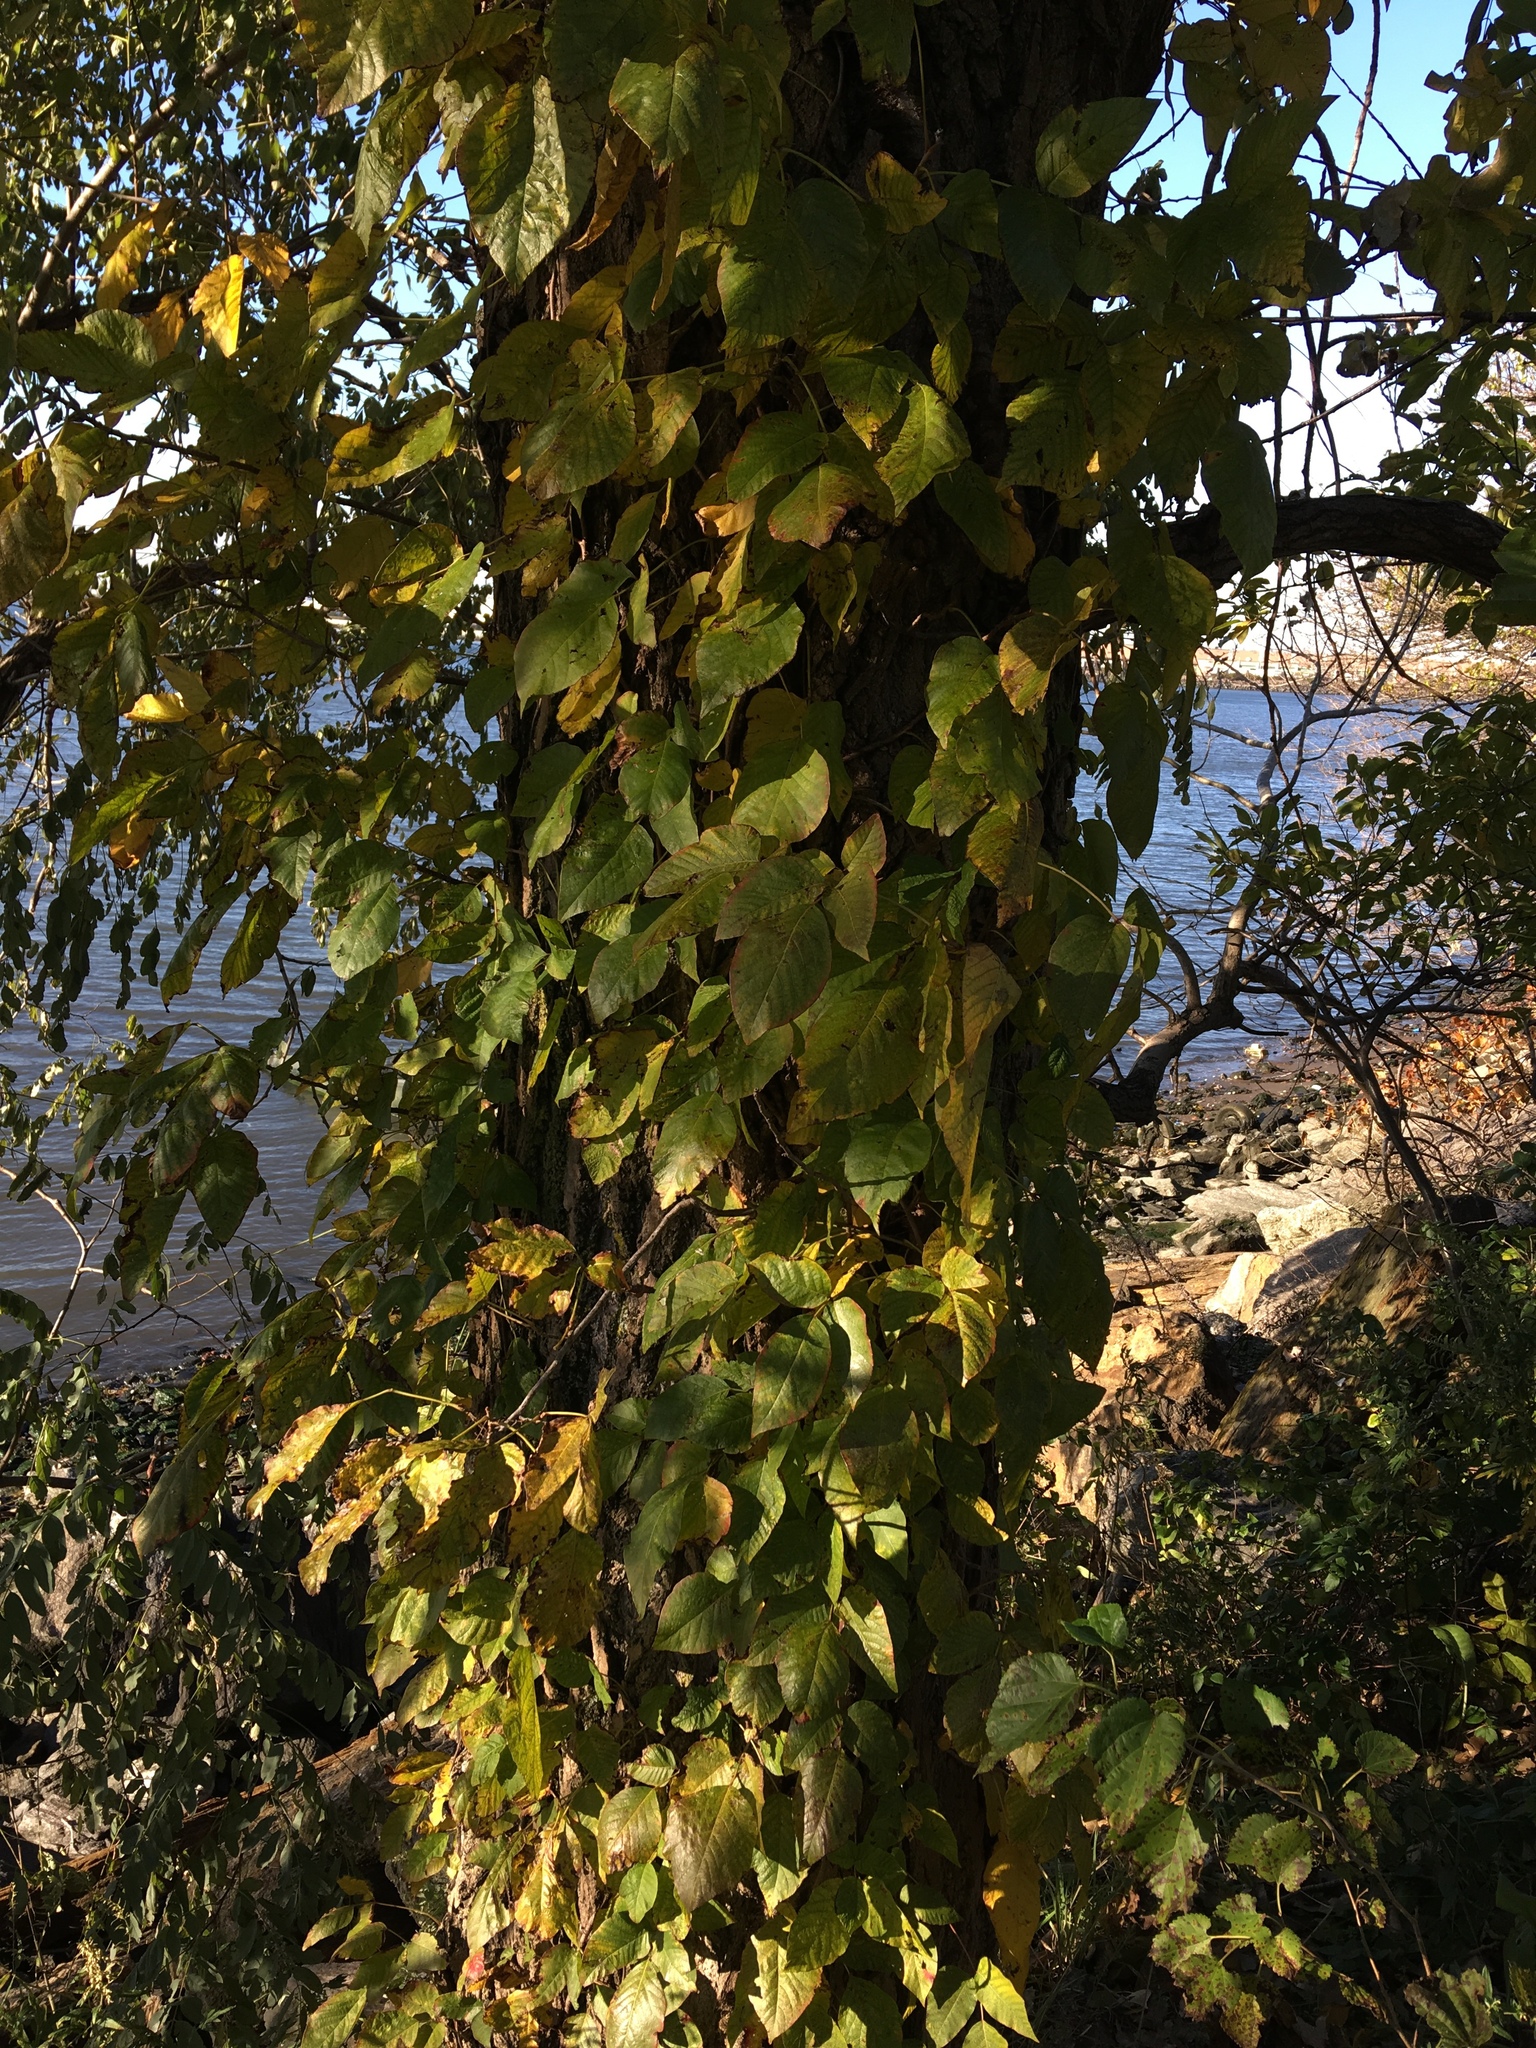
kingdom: Plantae
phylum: Tracheophyta
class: Magnoliopsida
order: Sapindales
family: Anacardiaceae
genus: Toxicodendron
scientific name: Toxicodendron radicans
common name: Poison ivy
